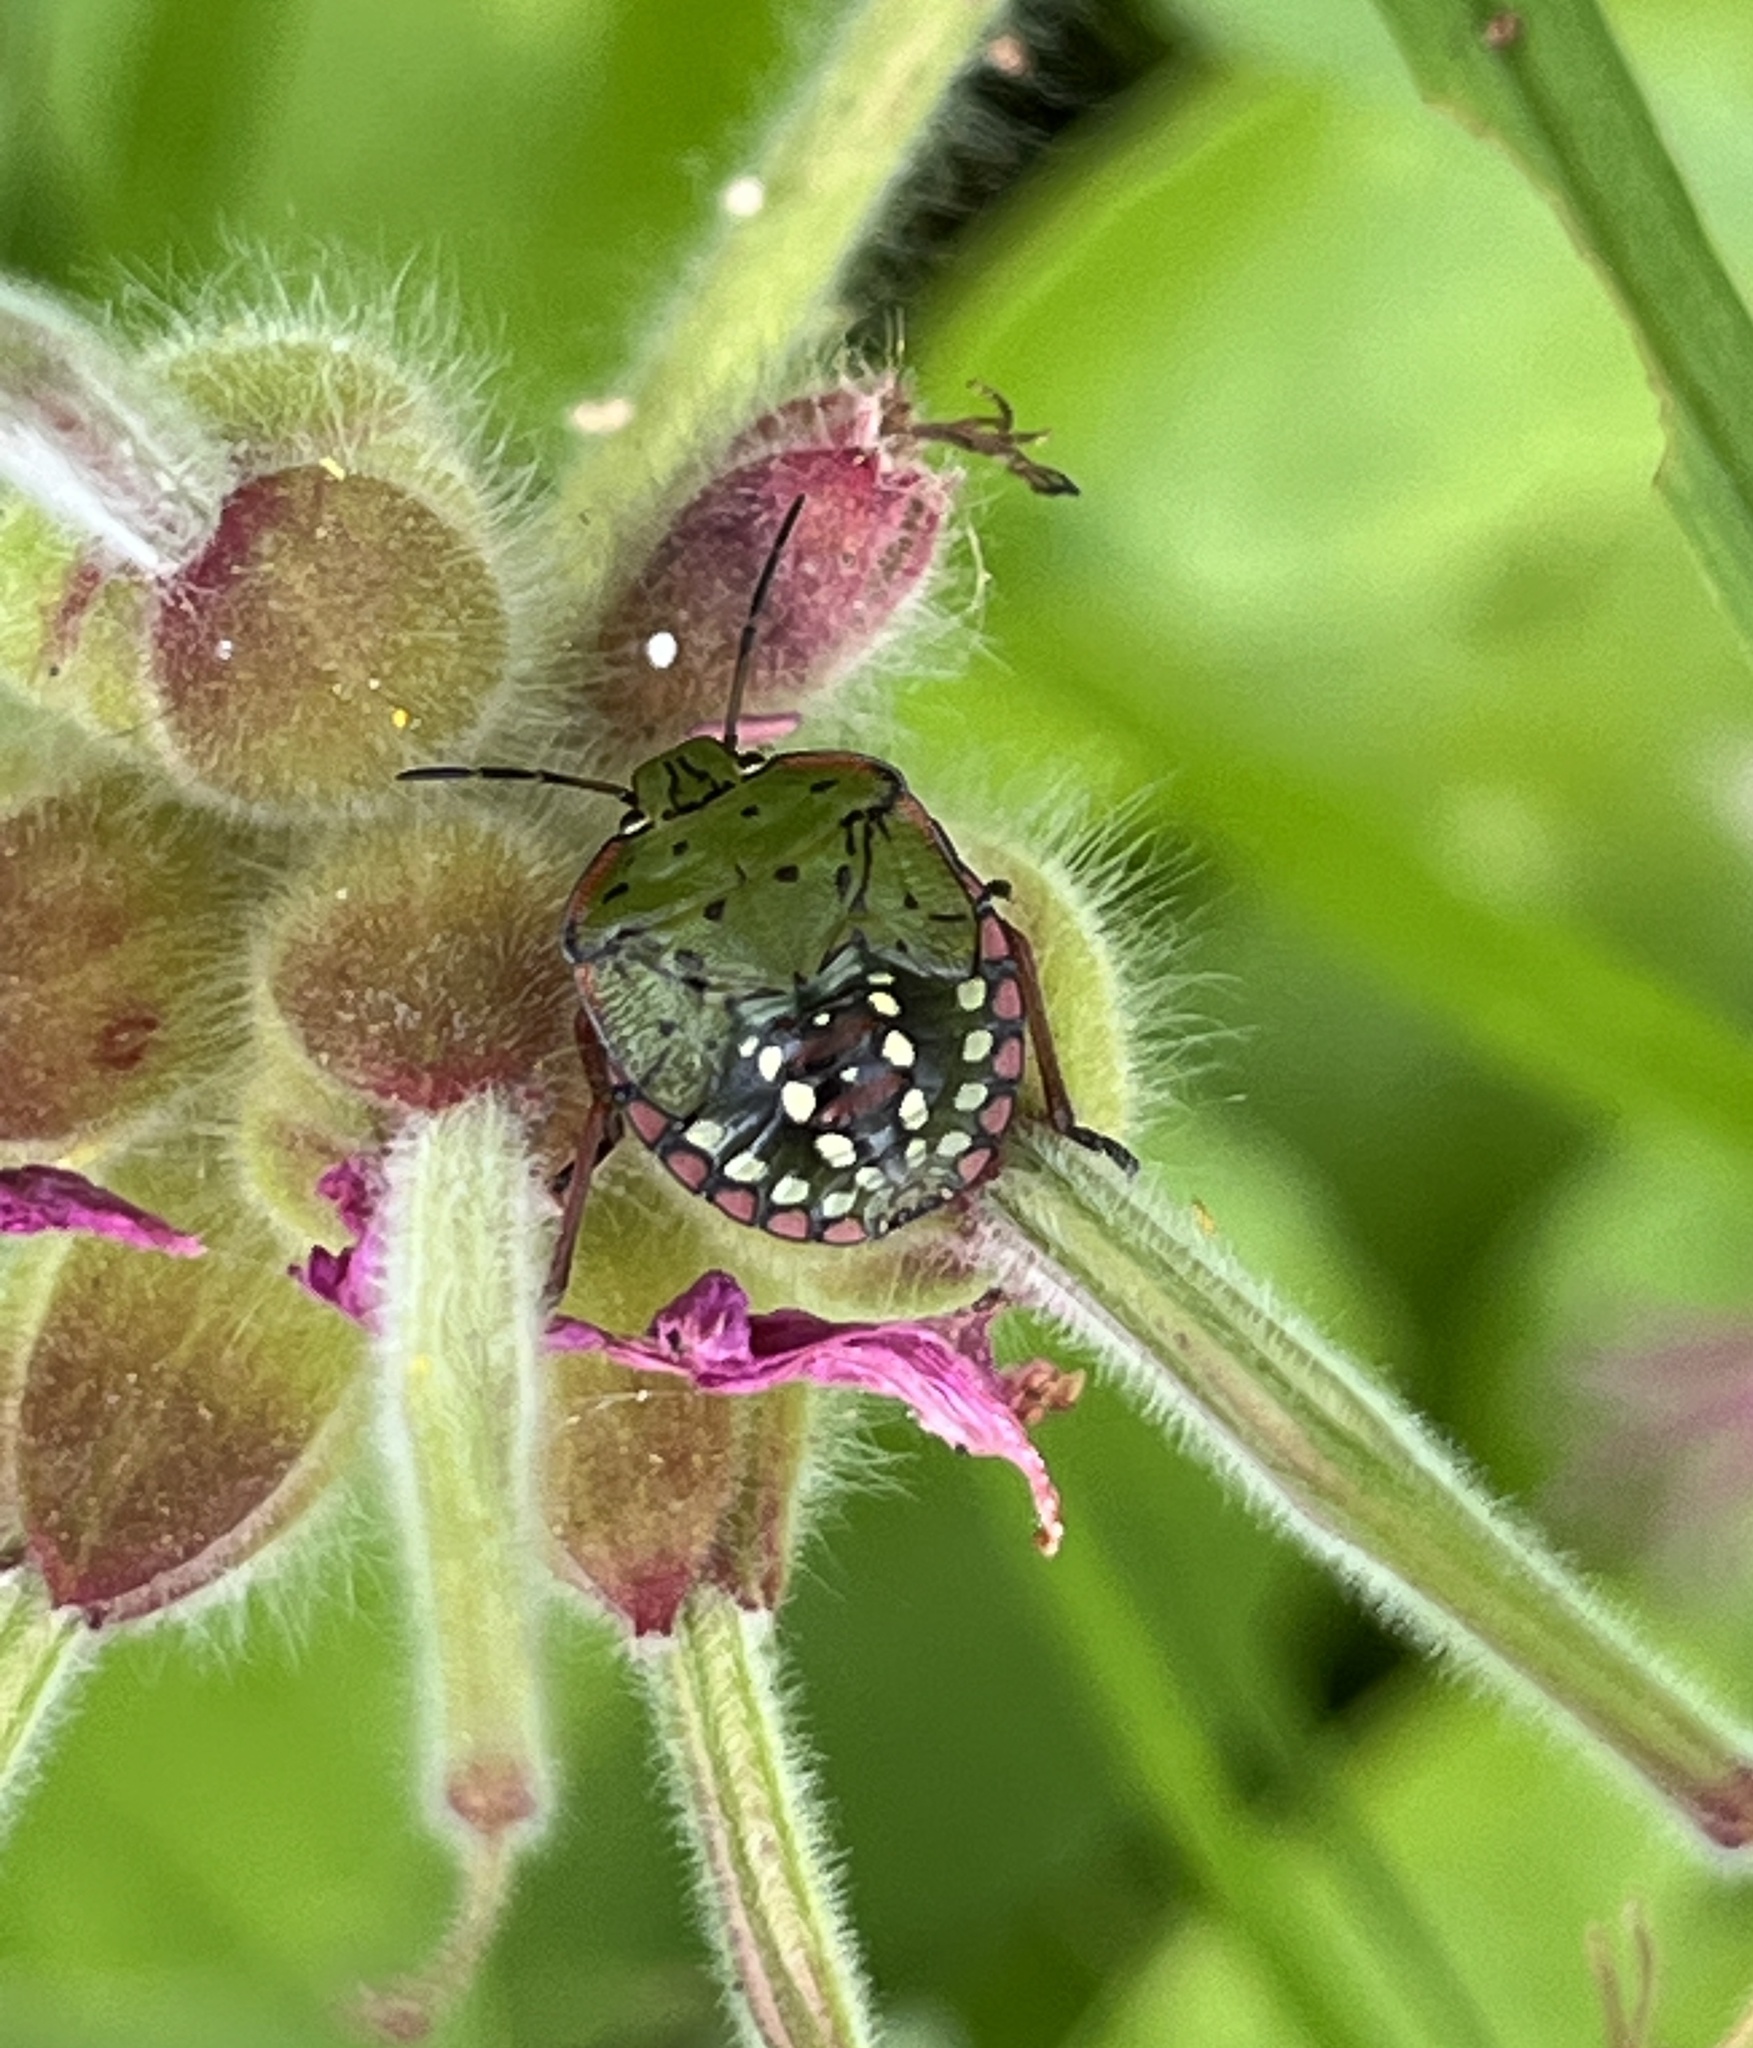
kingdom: Animalia
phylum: Arthropoda
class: Insecta
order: Hemiptera
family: Pentatomidae
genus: Nezara
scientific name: Nezara viridula
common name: Southern green stink bug
